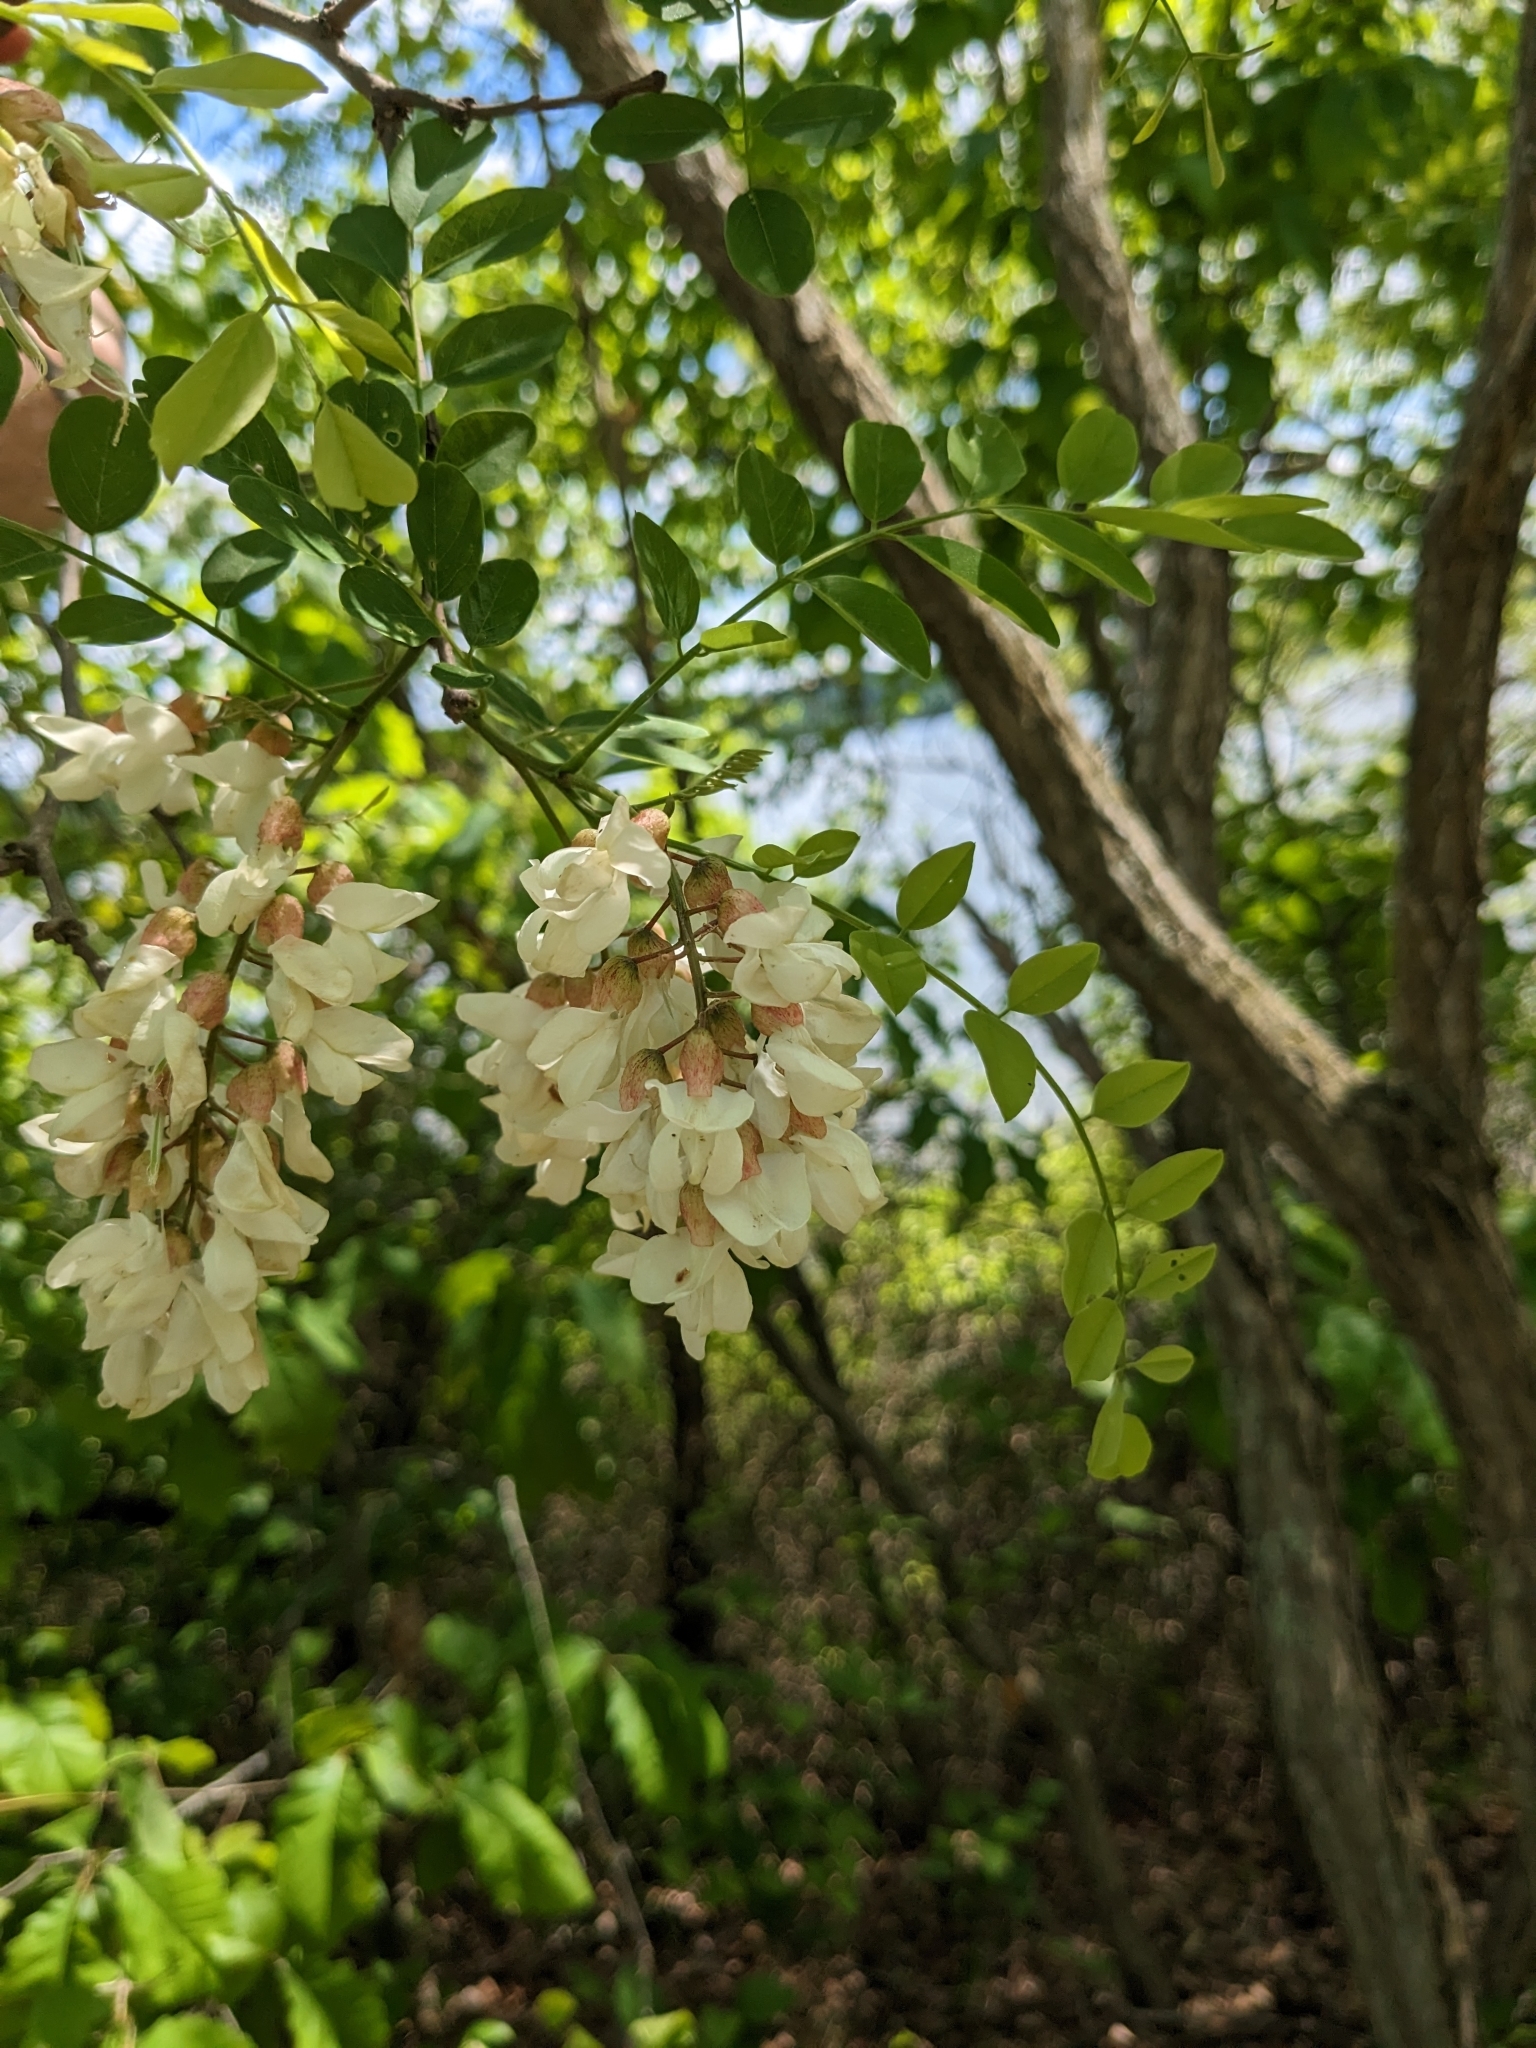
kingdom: Plantae
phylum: Tracheophyta
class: Magnoliopsida
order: Fabales
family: Fabaceae
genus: Robinia
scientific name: Robinia pseudoacacia
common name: Black locust
